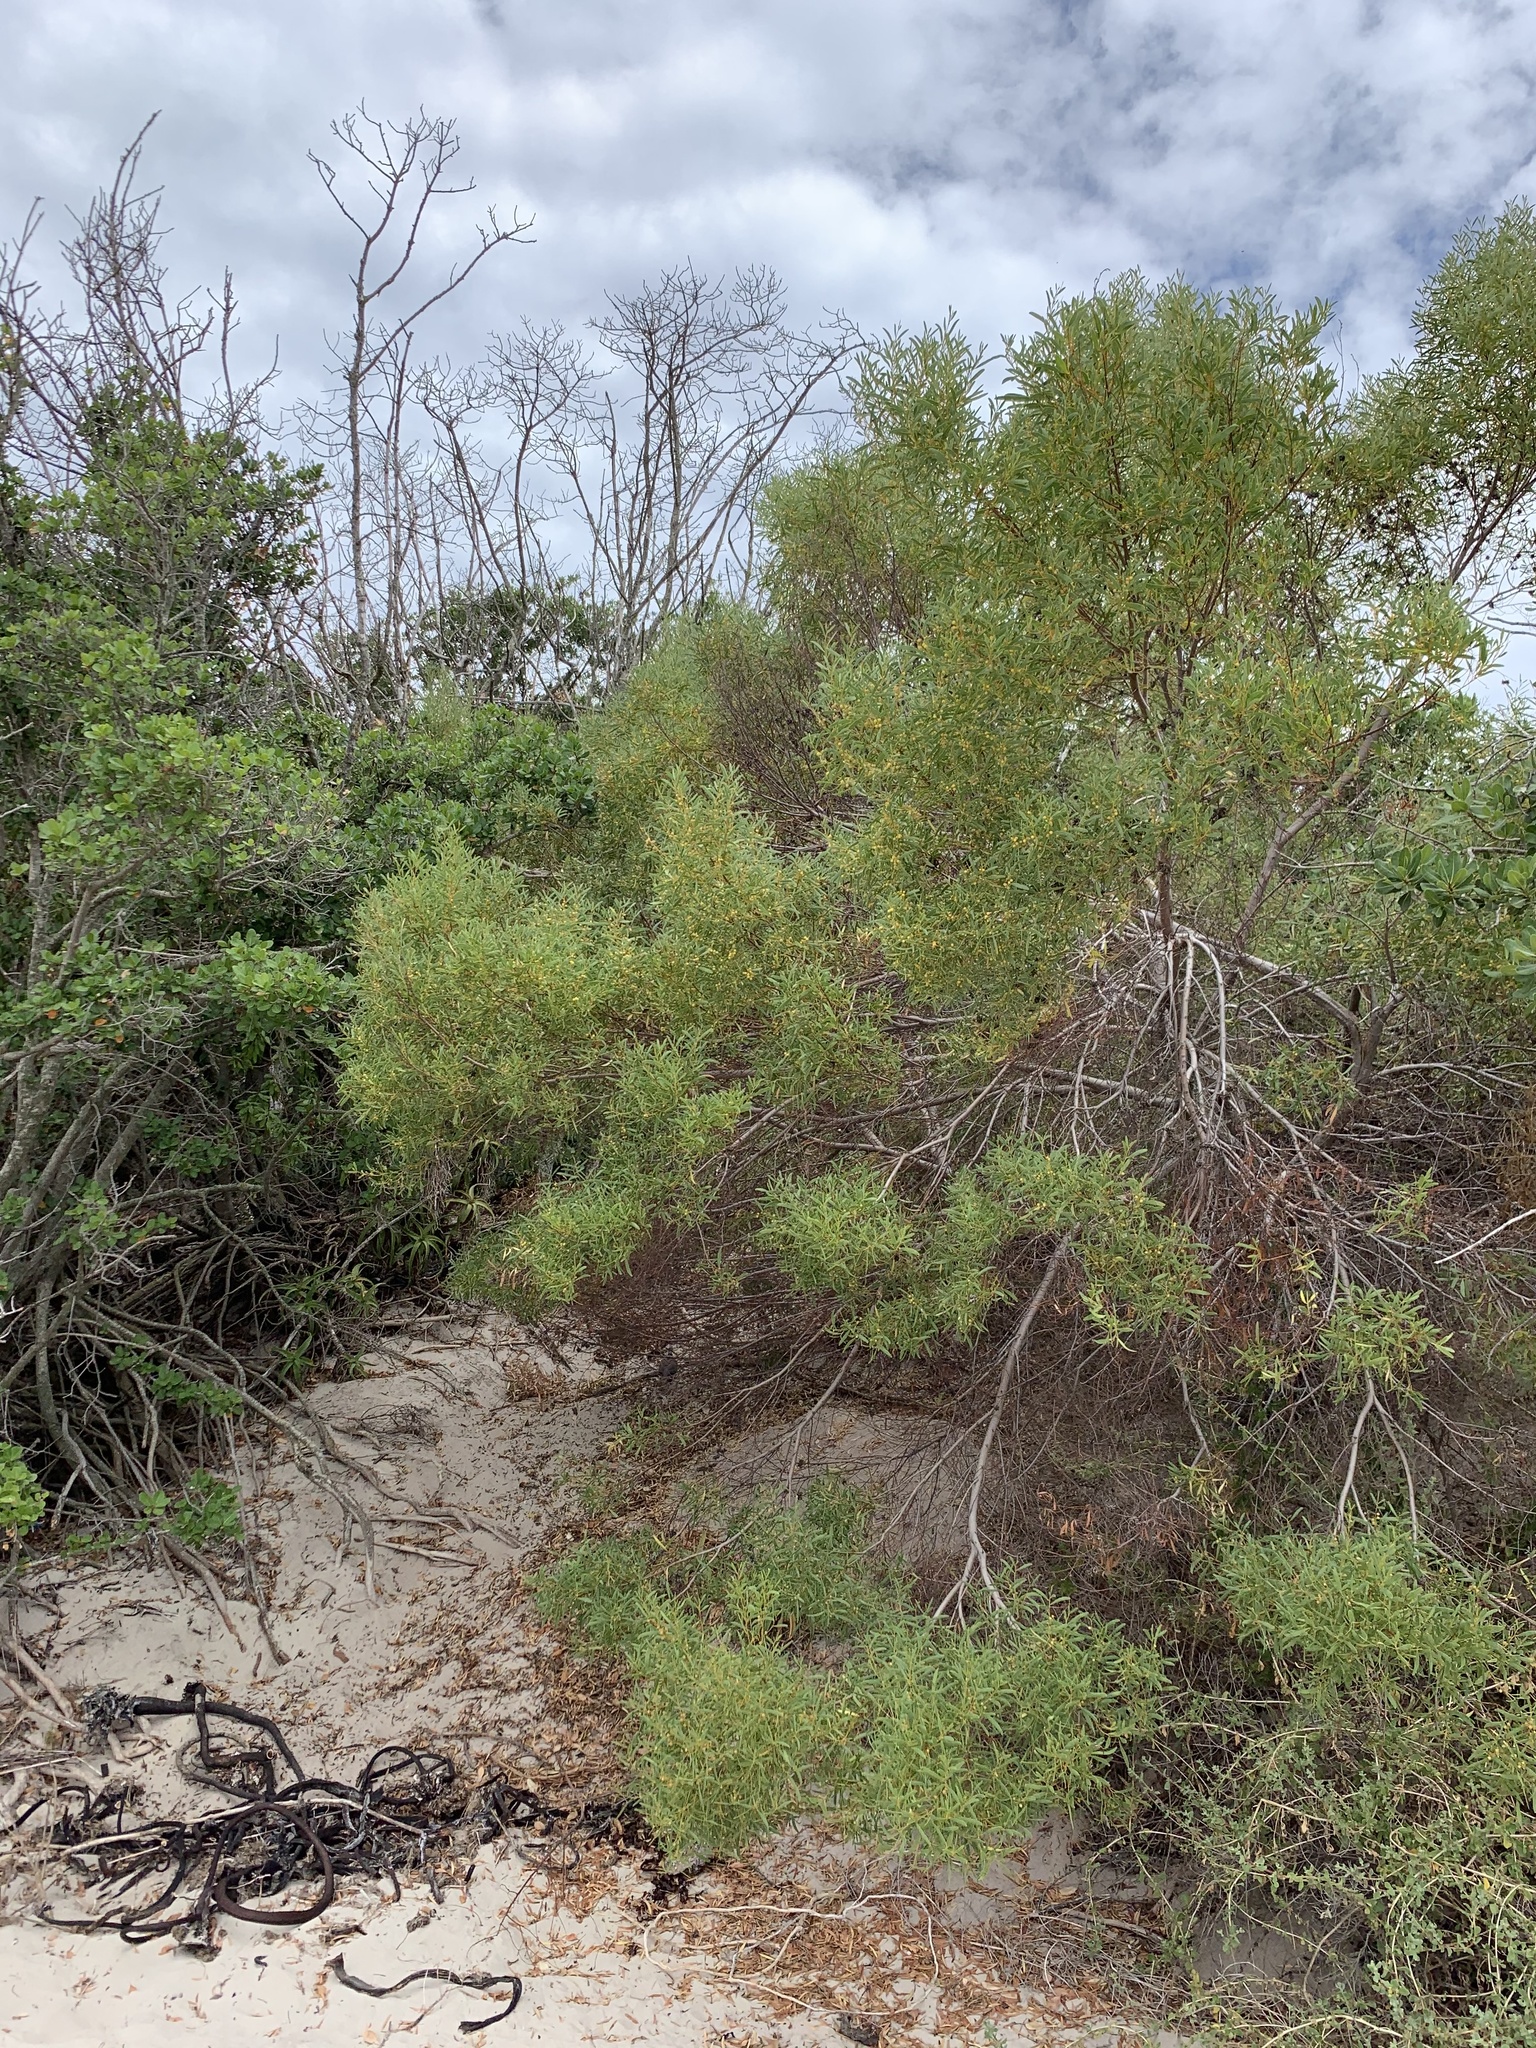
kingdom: Plantae
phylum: Tracheophyta
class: Magnoliopsida
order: Fabales
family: Fabaceae
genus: Acacia
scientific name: Acacia cyclops
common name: Coastal wattle
